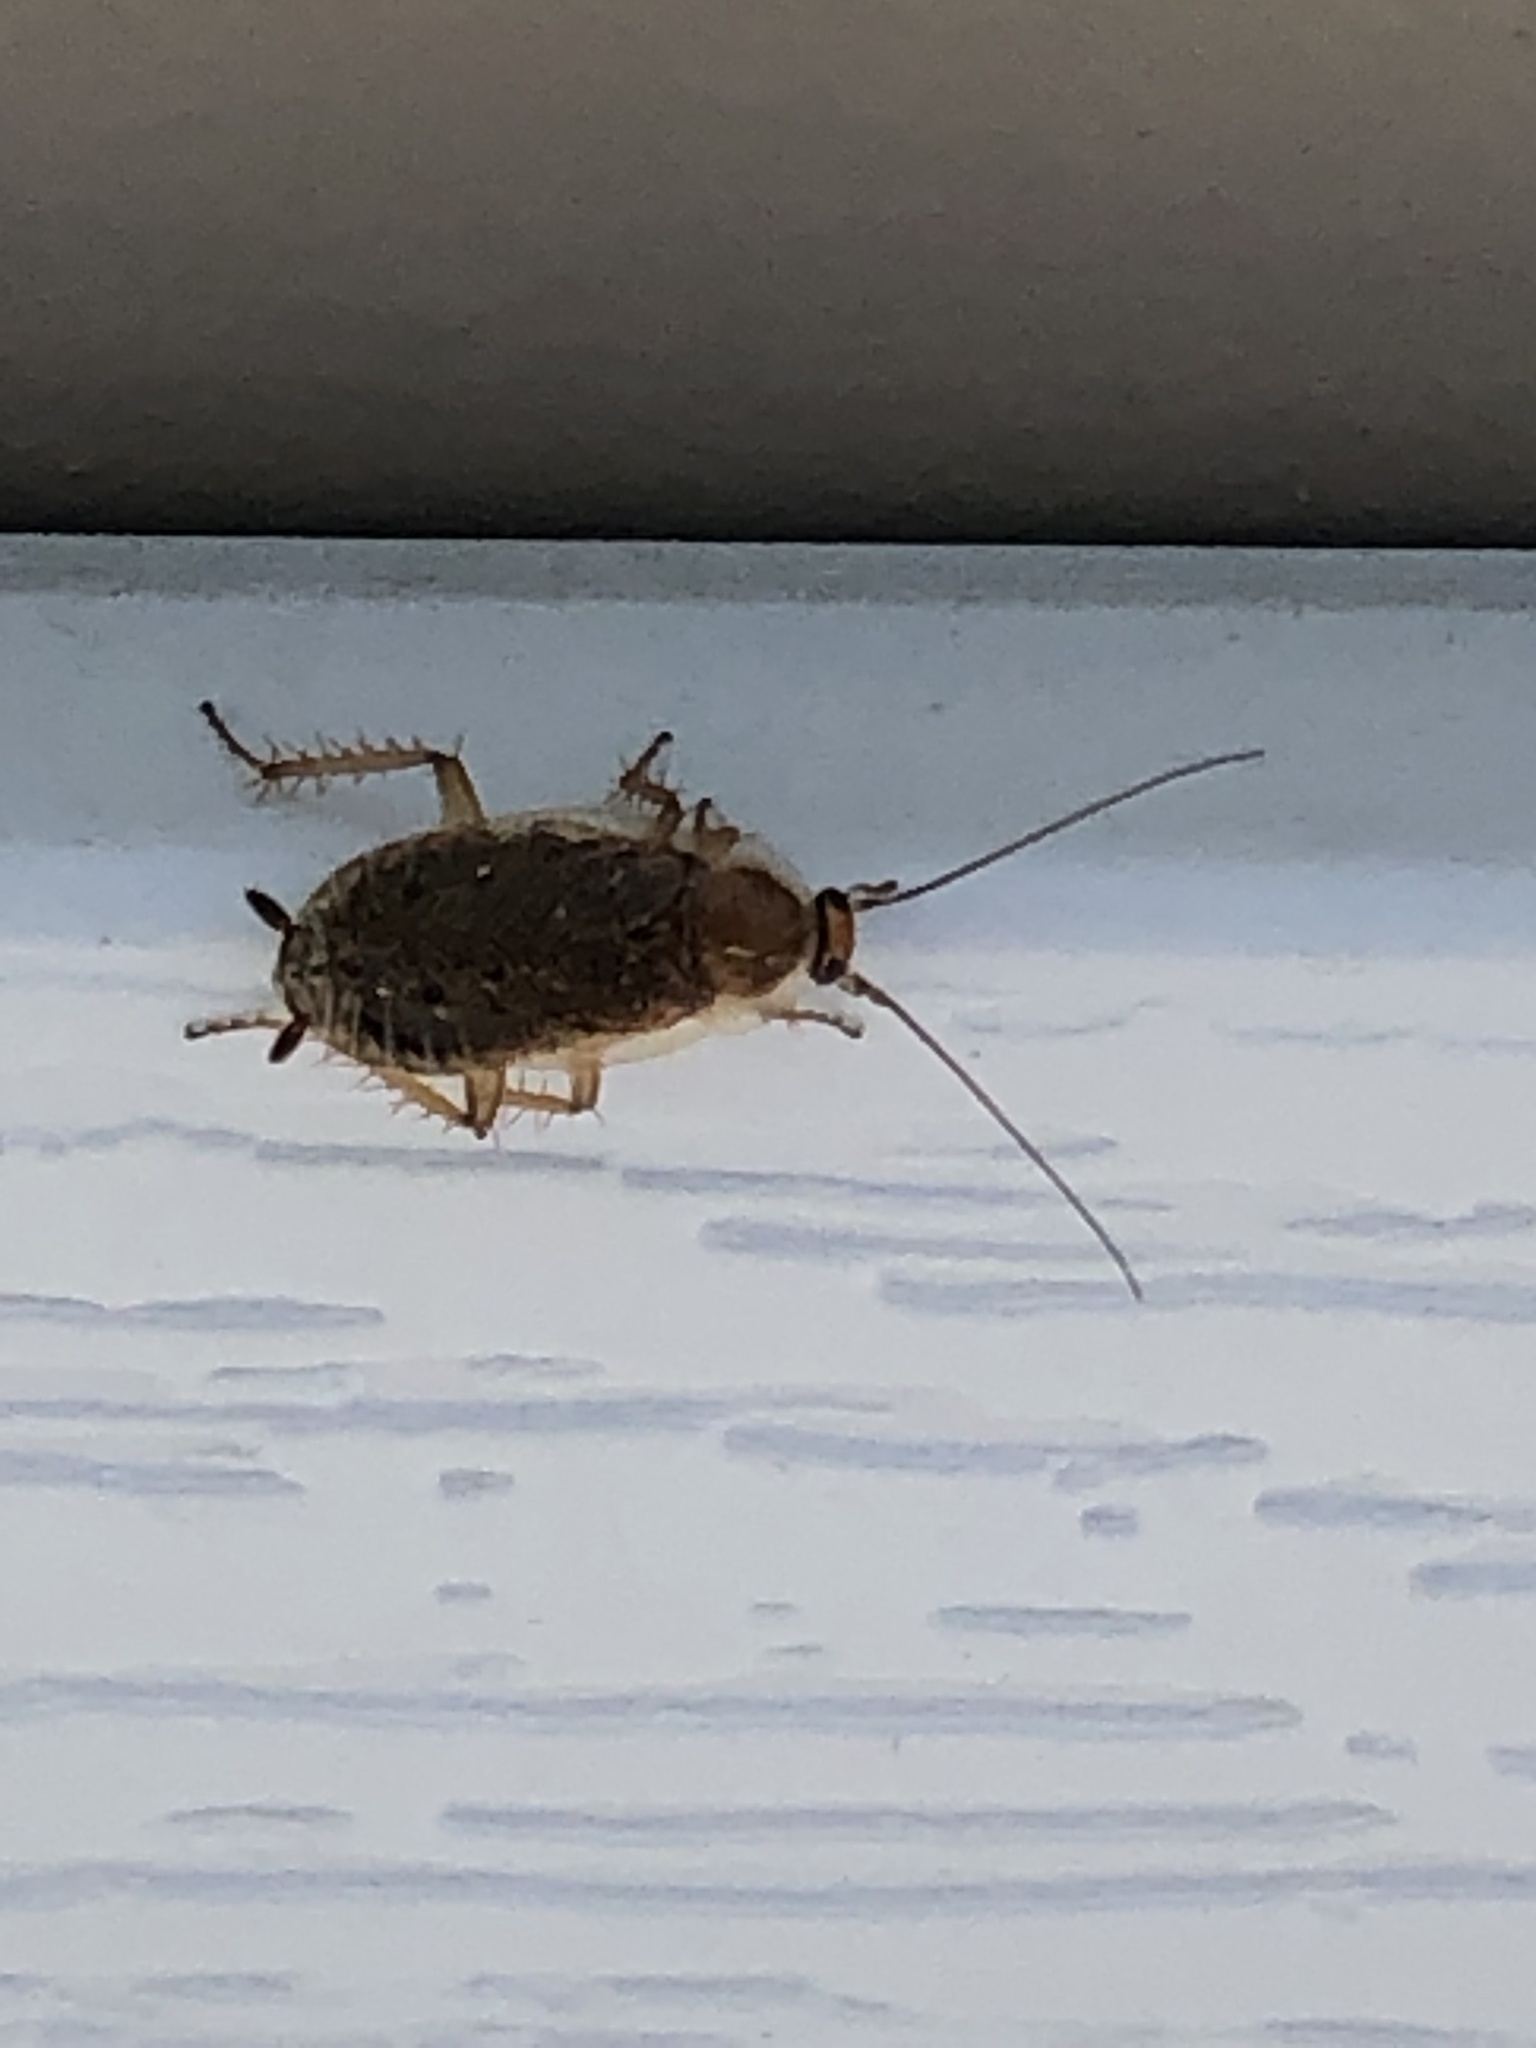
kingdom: Animalia
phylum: Arthropoda
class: Insecta
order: Blattodea
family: Ectobiidae
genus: Ectobius
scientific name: Ectobius lapponicus
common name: Dusky cockroach
